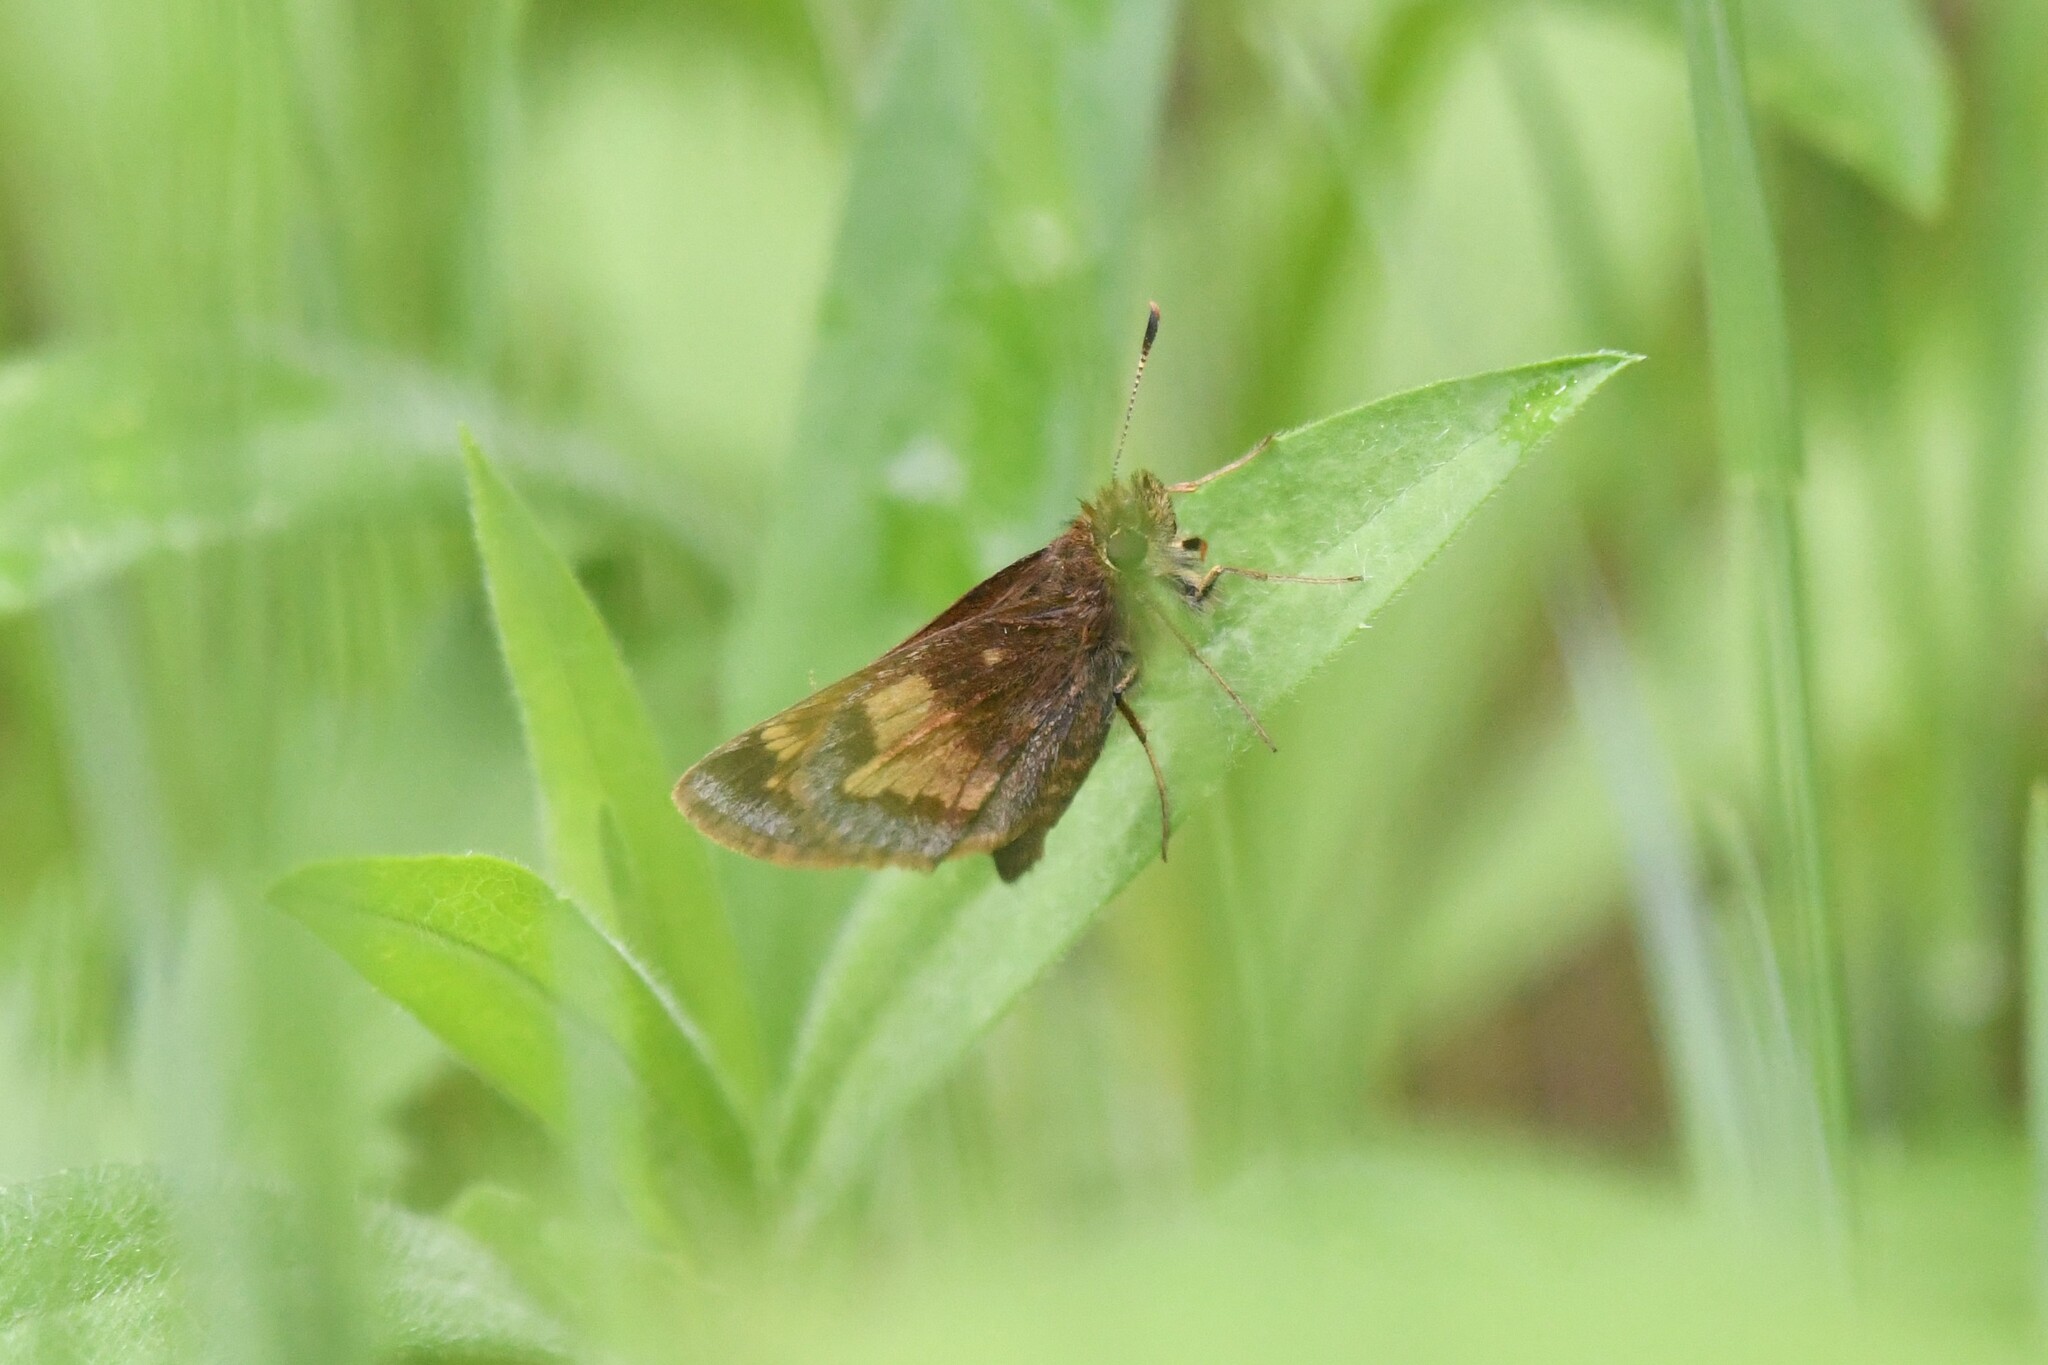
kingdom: Animalia
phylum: Arthropoda
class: Insecta
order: Lepidoptera
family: Hesperiidae
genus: Lon
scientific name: Lon hobomok
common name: Hobomok skipper
